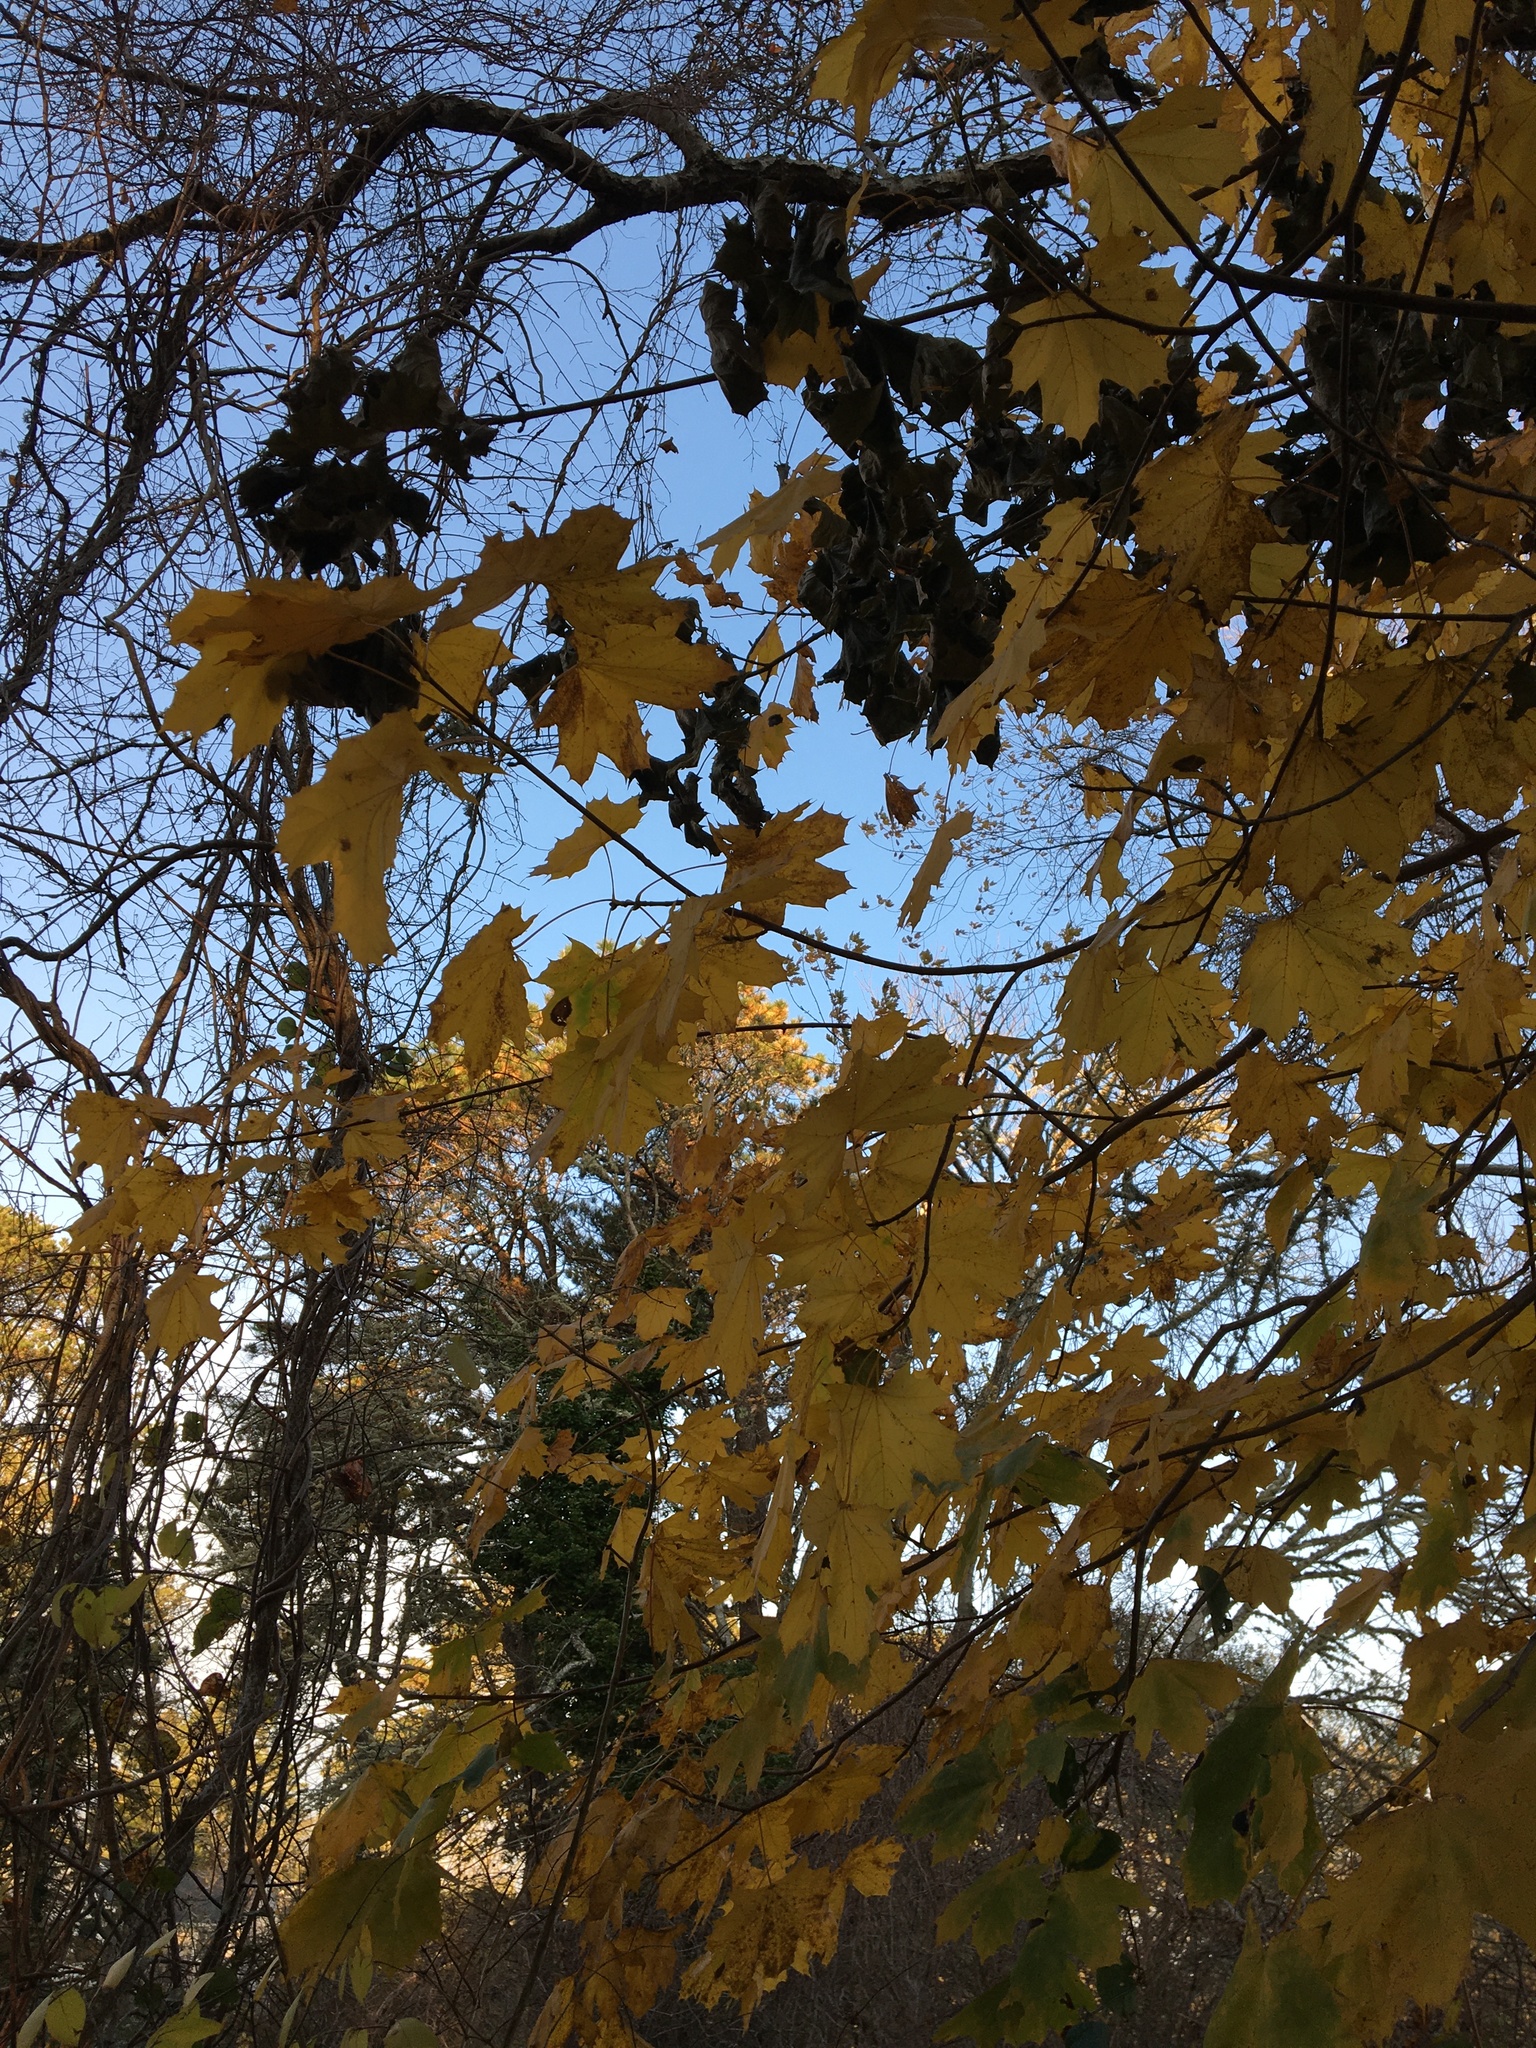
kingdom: Plantae
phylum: Tracheophyta
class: Magnoliopsida
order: Sapindales
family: Sapindaceae
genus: Acer
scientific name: Acer platanoides
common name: Norway maple
